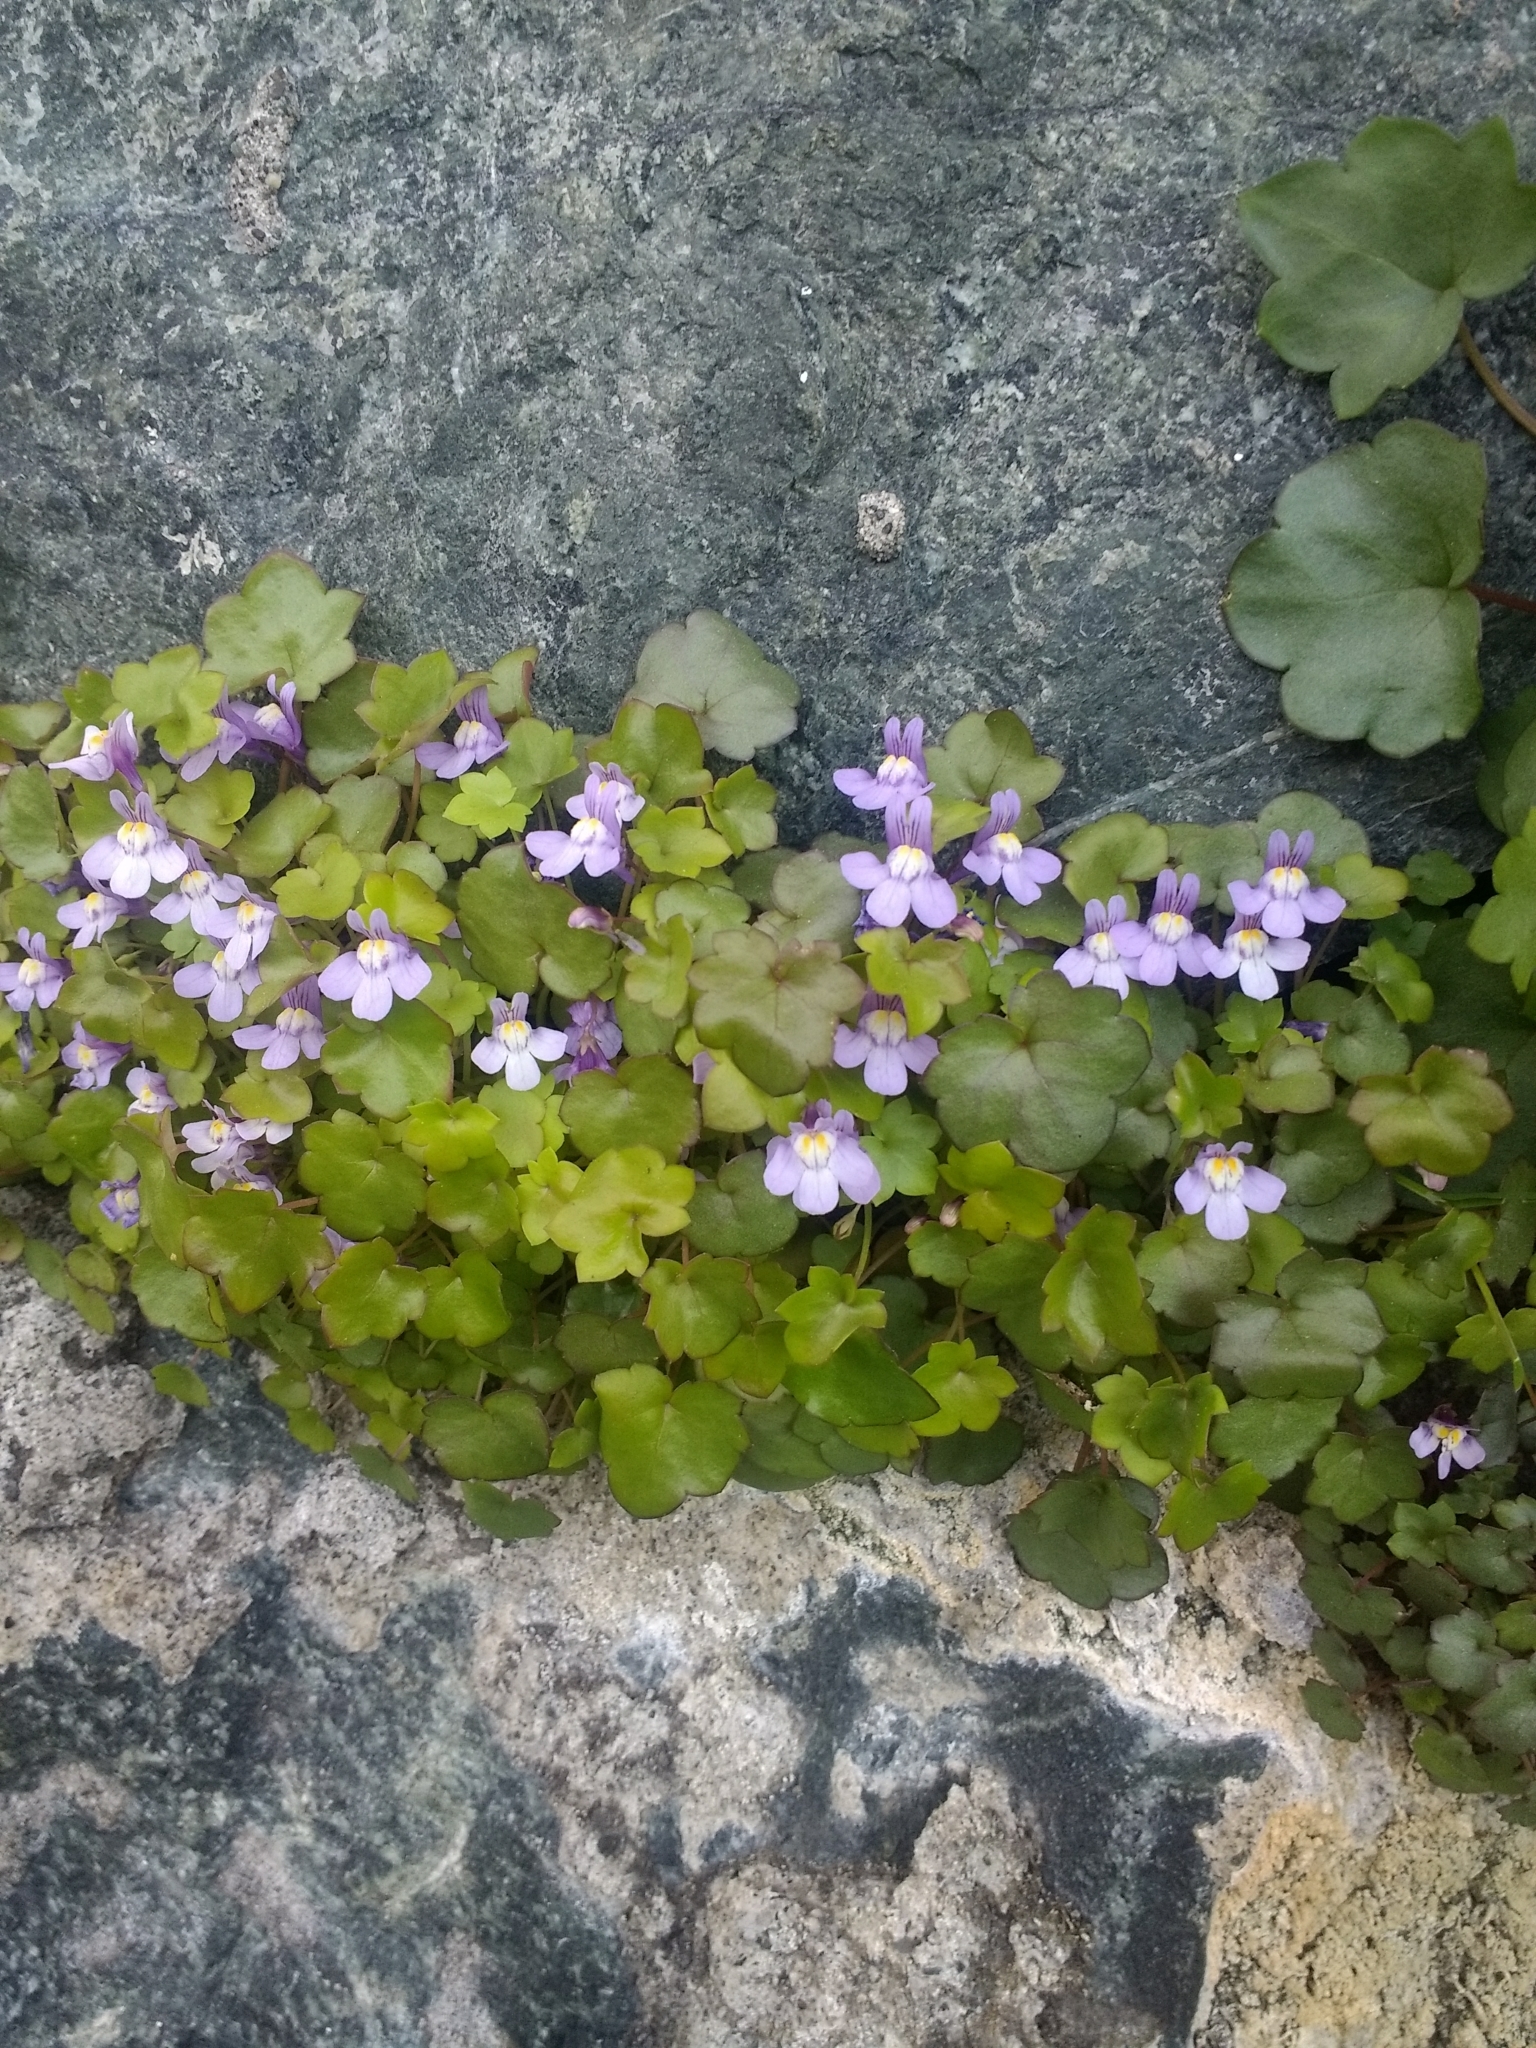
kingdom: Plantae
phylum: Tracheophyta
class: Magnoliopsida
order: Lamiales
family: Plantaginaceae
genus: Cymbalaria
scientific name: Cymbalaria muralis
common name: Ivy-leaved toadflax
